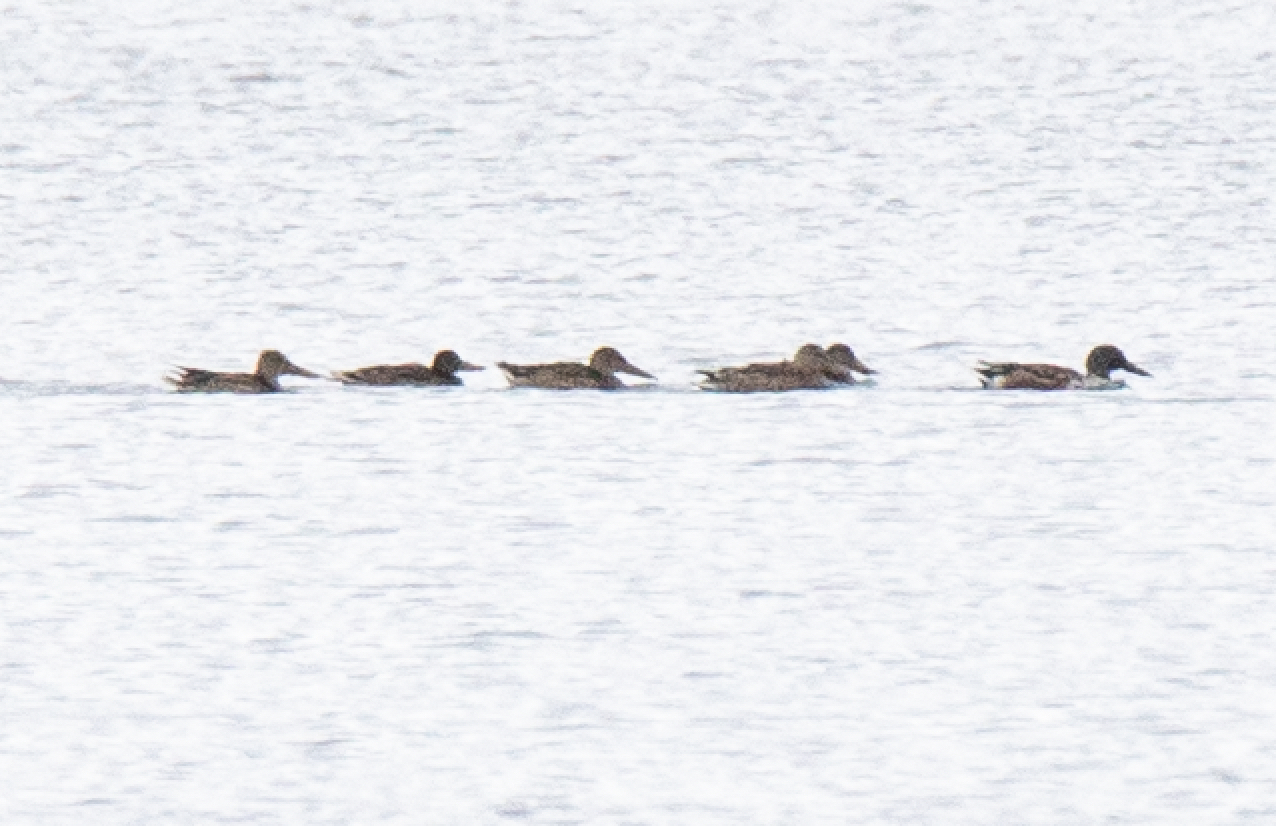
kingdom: Animalia
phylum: Chordata
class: Aves
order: Anseriformes
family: Anatidae
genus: Spatula
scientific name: Spatula clypeata
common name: Northern shoveler
